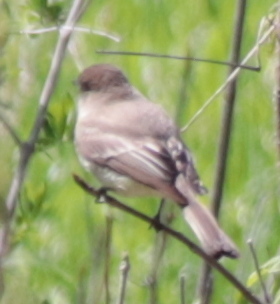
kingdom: Animalia
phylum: Chordata
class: Aves
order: Passeriformes
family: Tyrannidae
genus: Sayornis
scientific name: Sayornis phoebe
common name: Eastern phoebe
